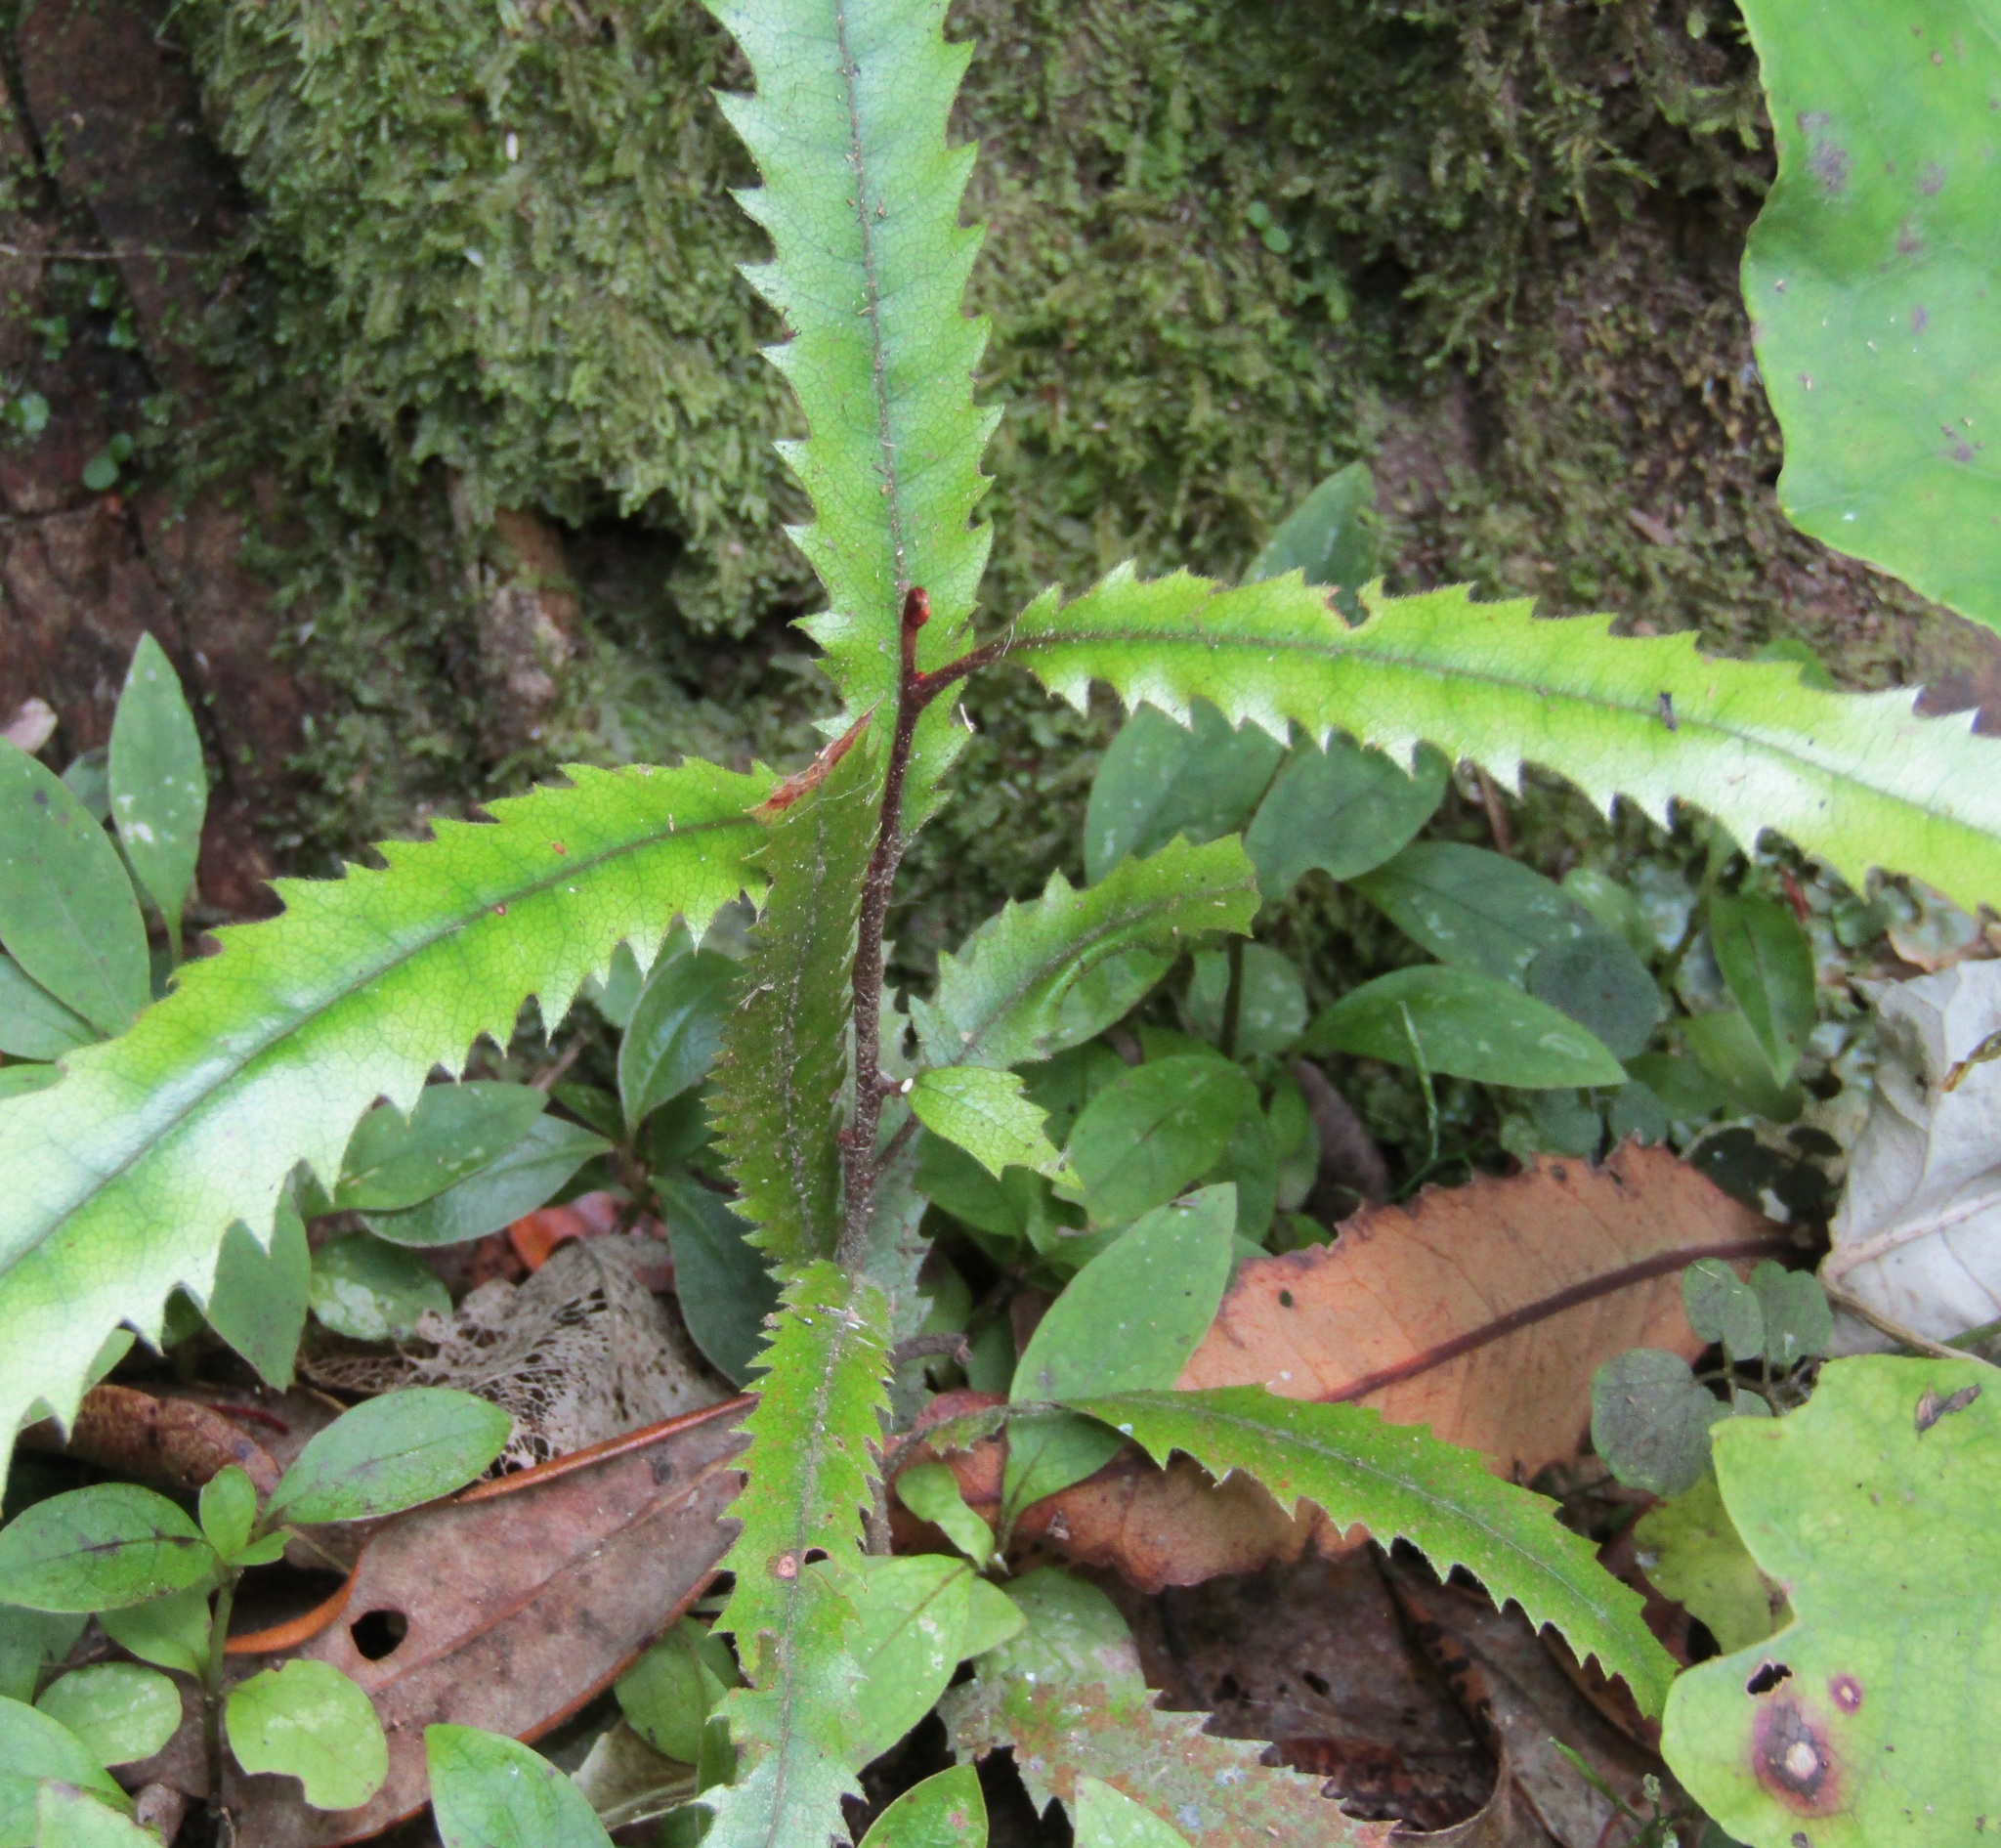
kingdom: Plantae
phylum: Tracheophyta
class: Magnoliopsida
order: Proteales
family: Proteaceae
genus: Knightia
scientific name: Knightia excelsa
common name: New zealand-honeysuckle
